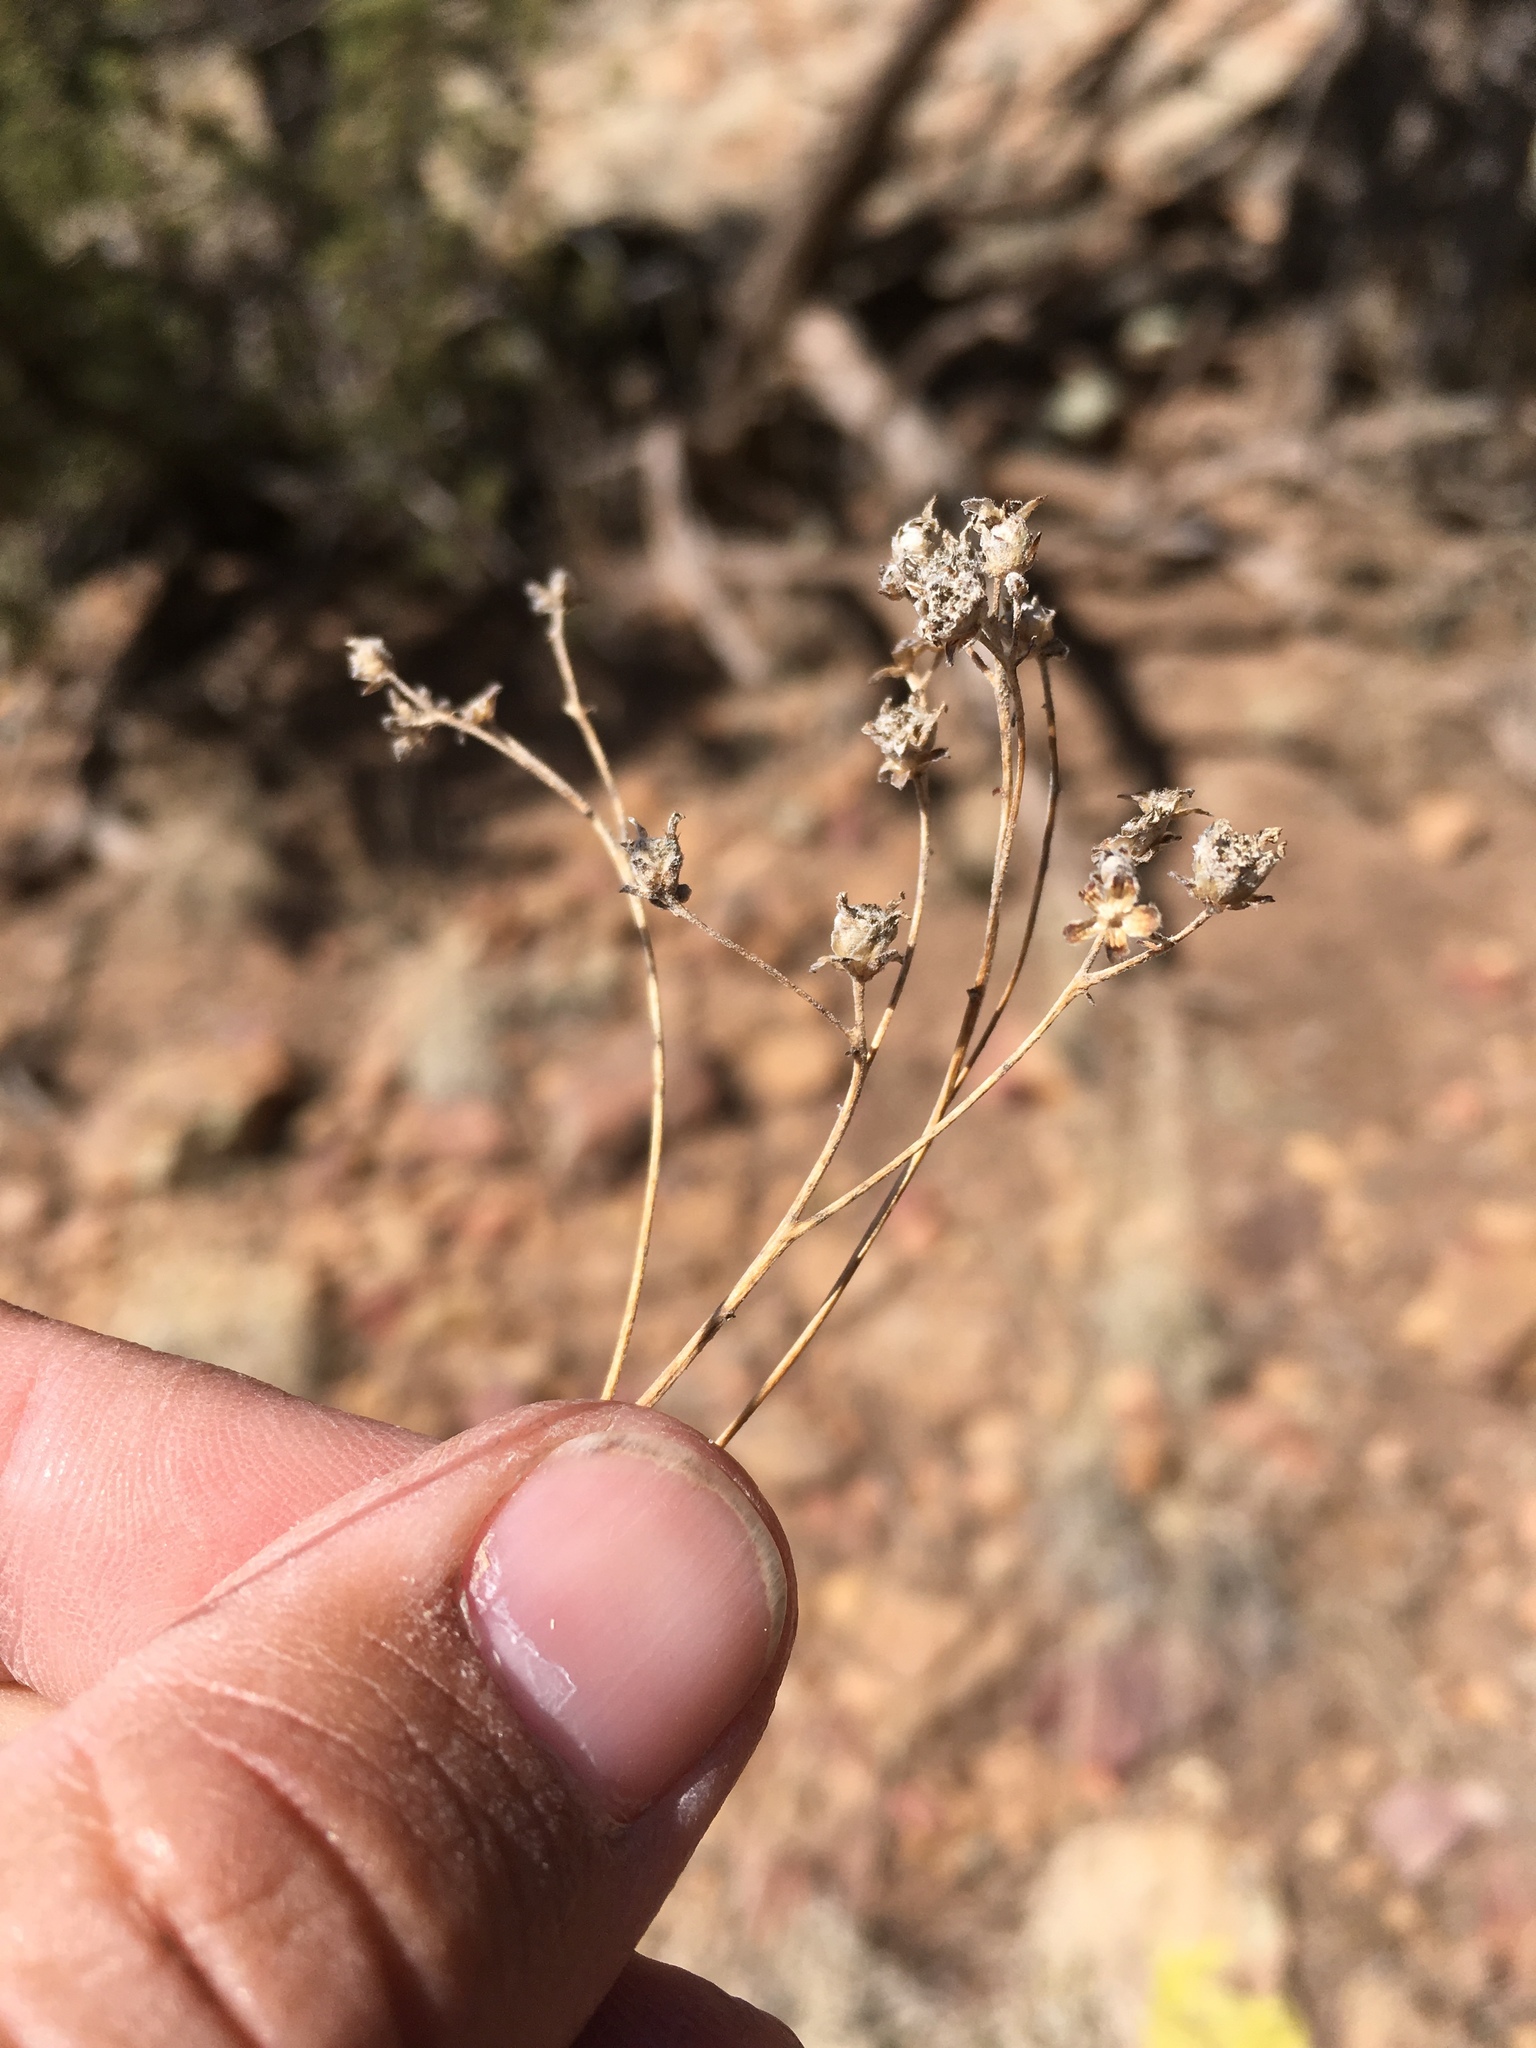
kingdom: Plantae
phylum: Tracheophyta
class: Magnoliopsida
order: Asterales
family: Asteraceae
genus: Parthenium
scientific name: Parthenium incanum
